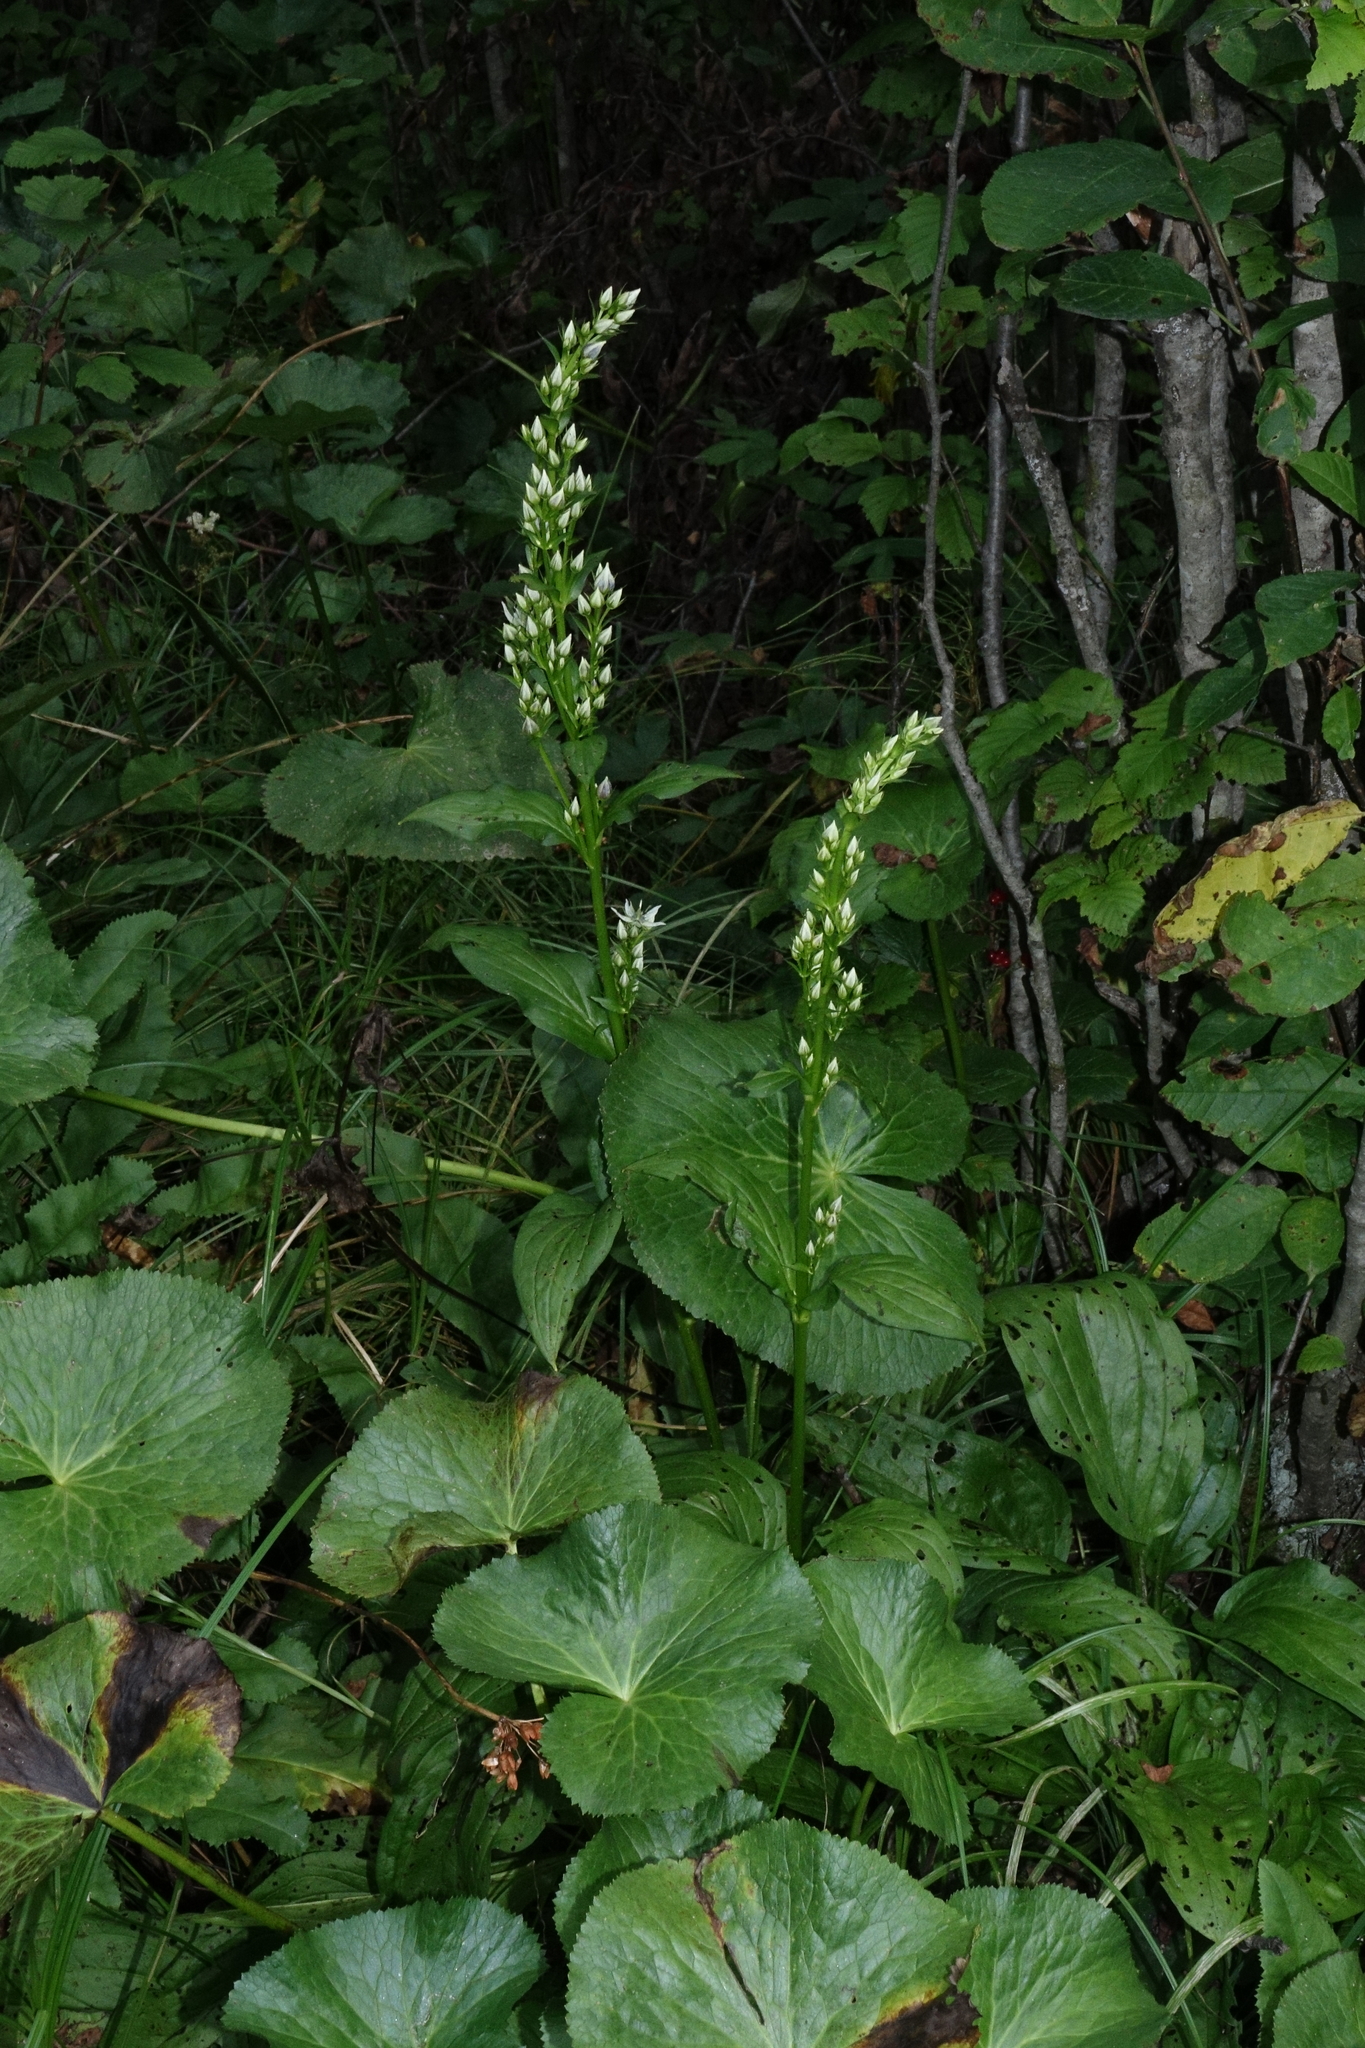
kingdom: Plantae
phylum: Tracheophyta
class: Magnoliopsida
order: Ranunculales
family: Ranunculaceae
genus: Caltha
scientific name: Caltha palustris
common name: Marsh marigold
